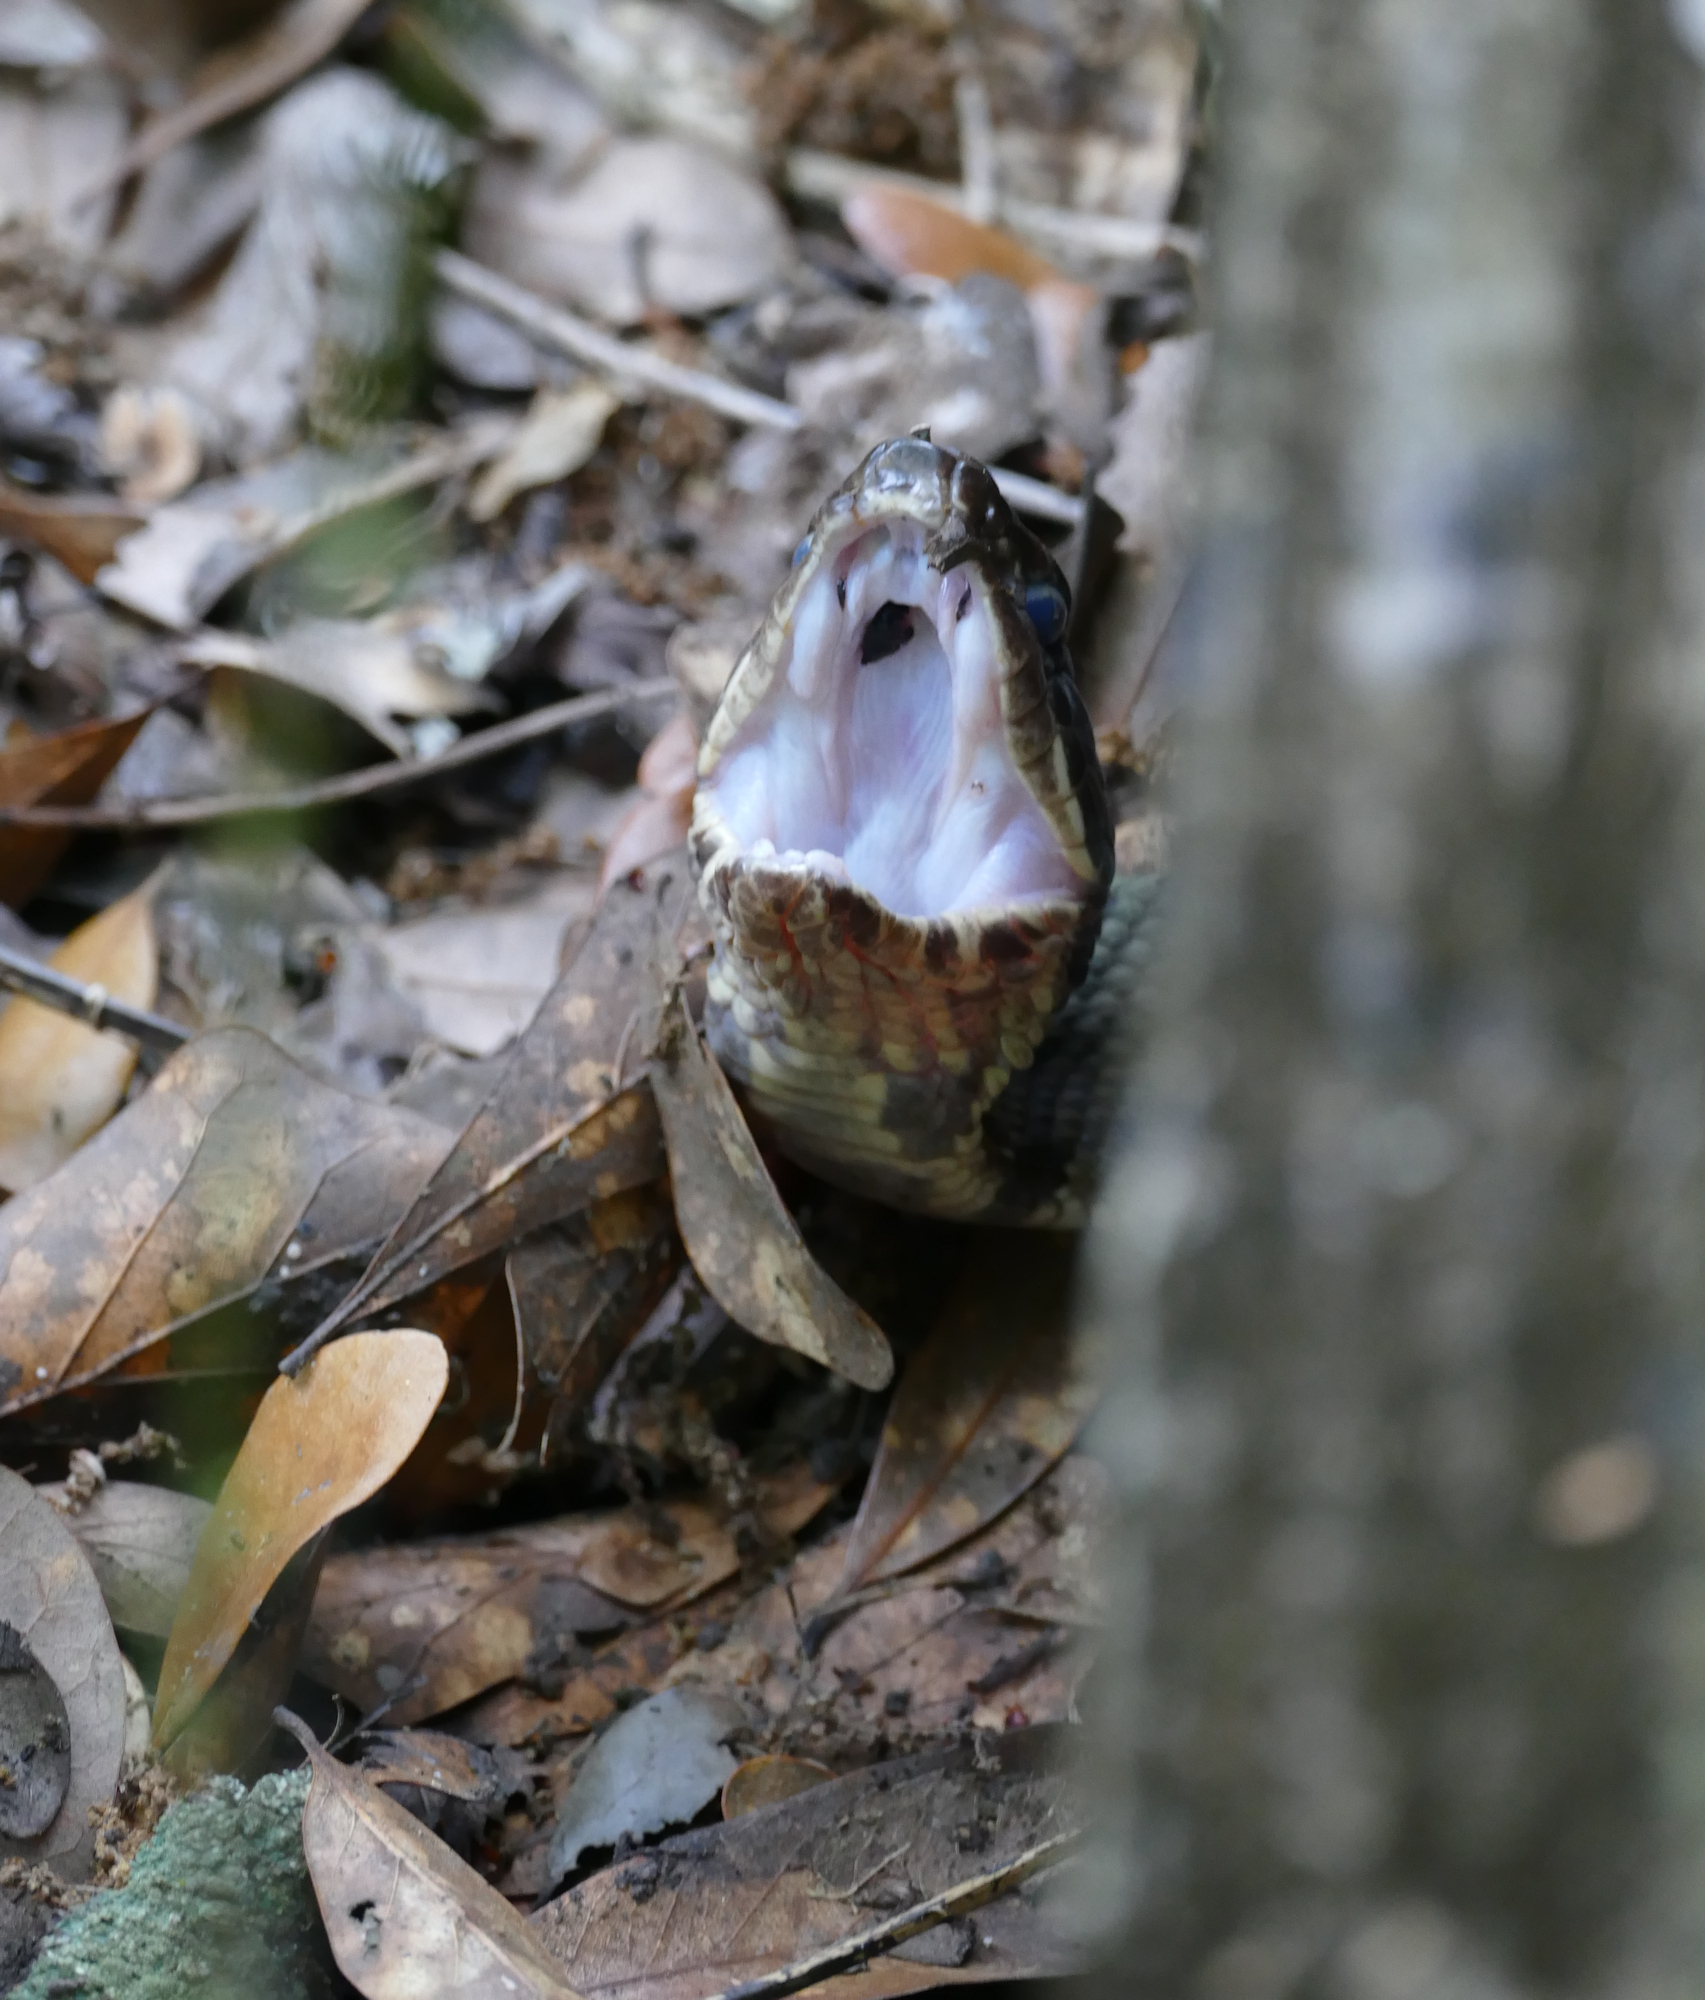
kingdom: Animalia
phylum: Chordata
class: Squamata
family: Viperidae
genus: Agkistrodon
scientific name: Agkistrodon piscivorus
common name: Cottonmouth
